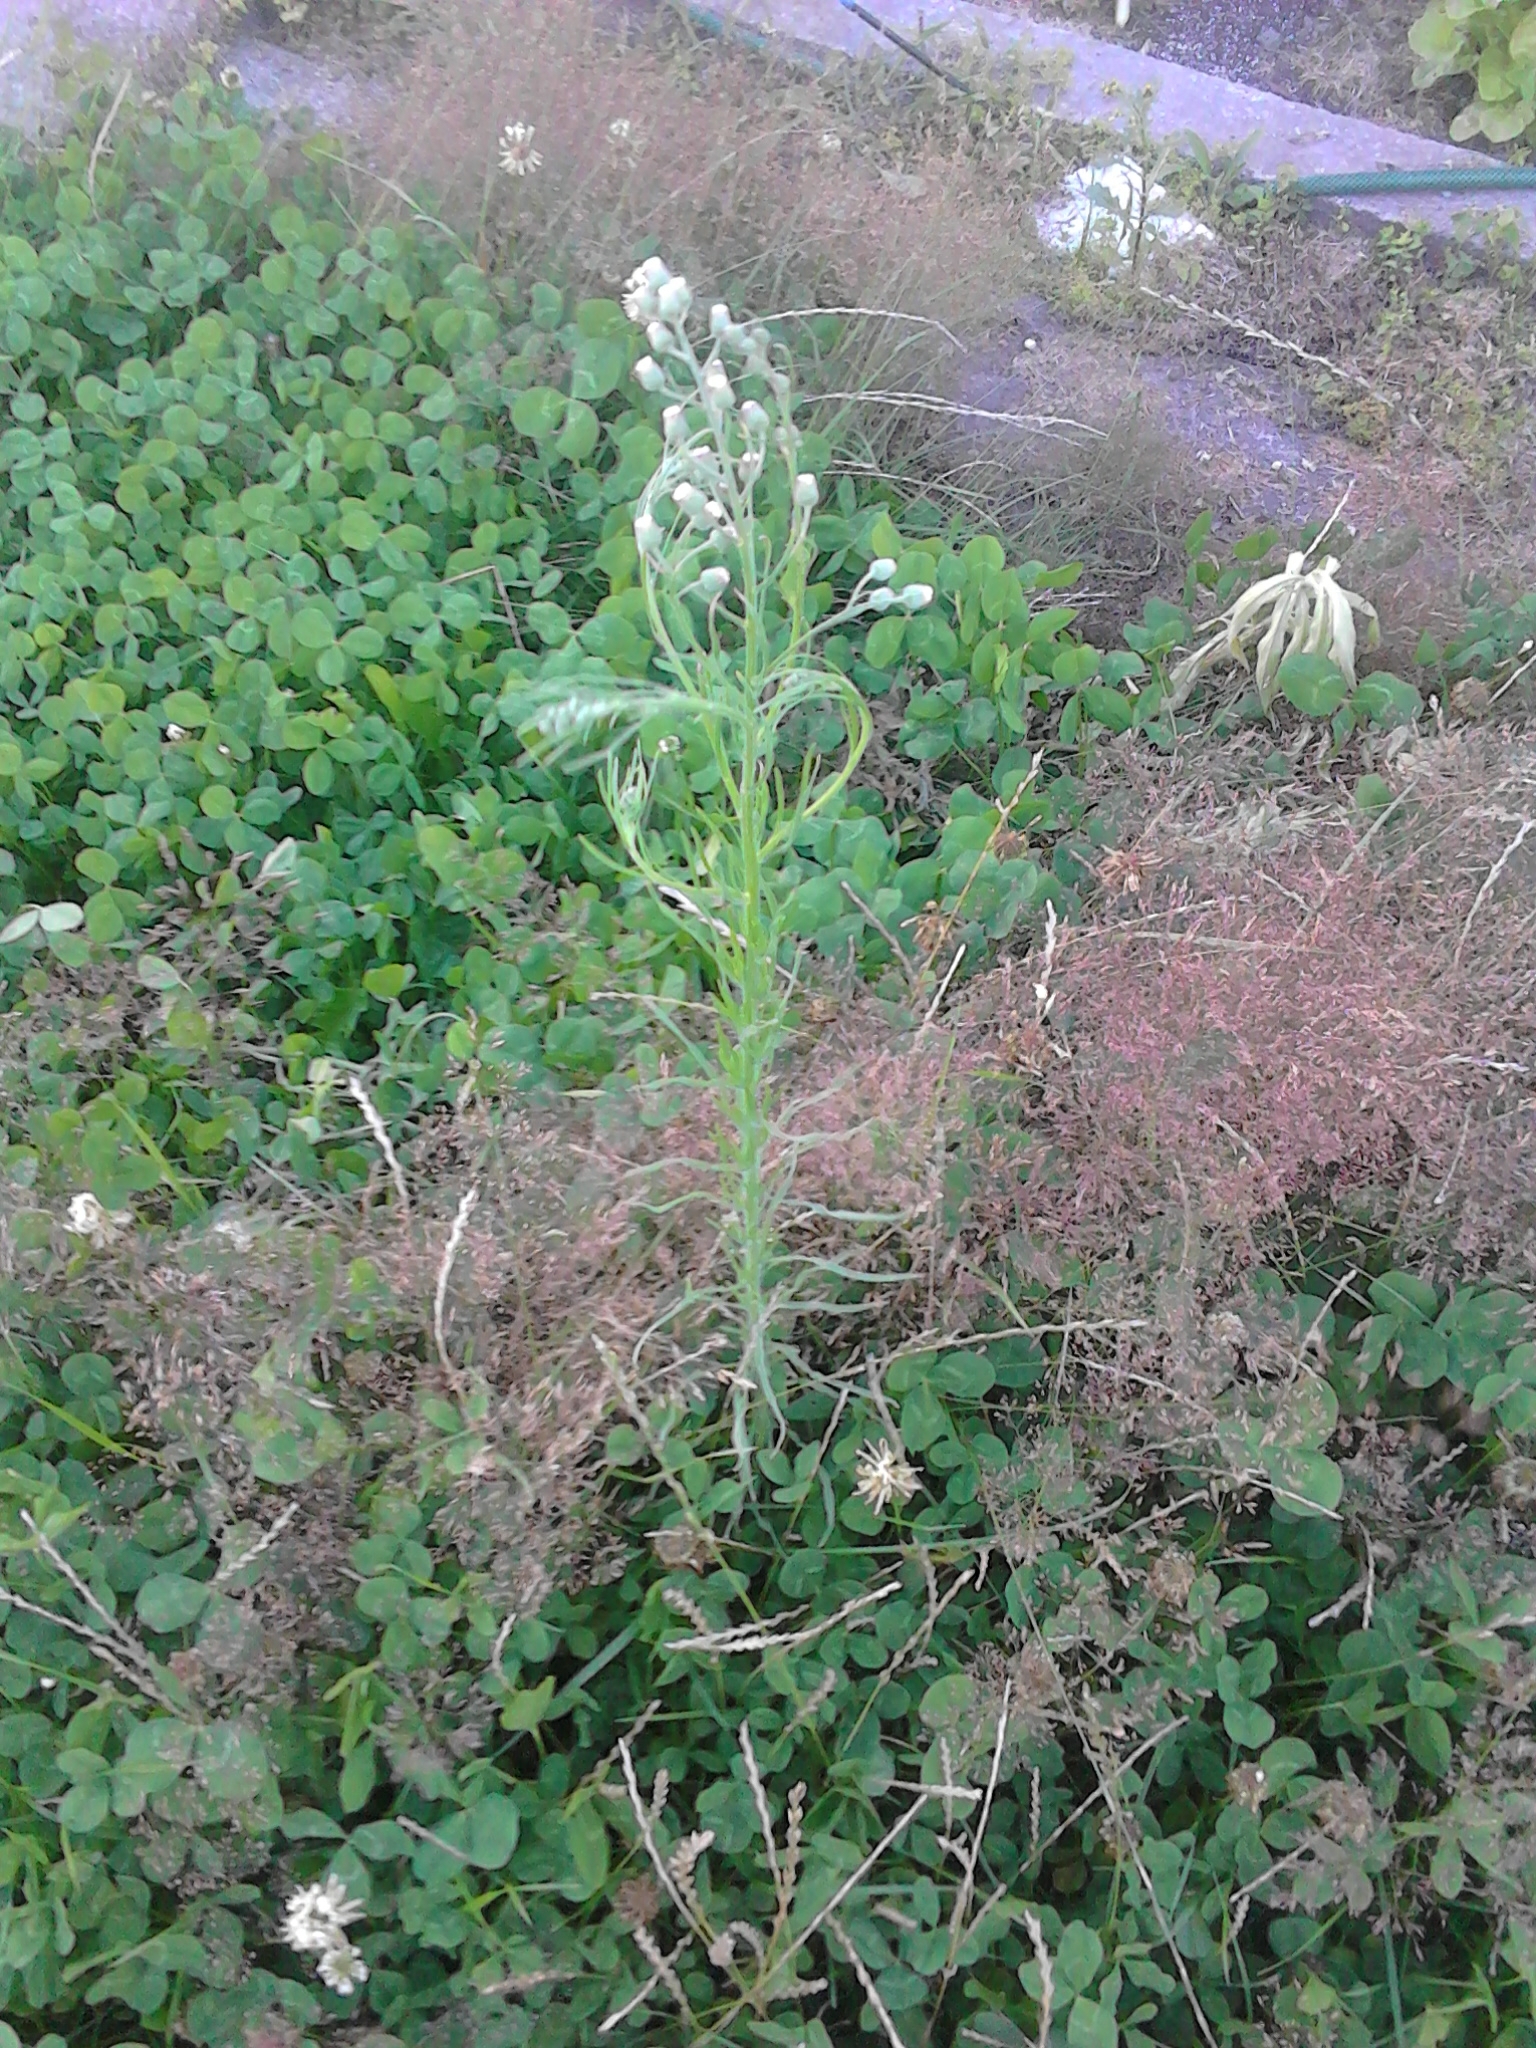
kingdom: Plantae
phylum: Tracheophyta
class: Magnoliopsida
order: Asterales
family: Asteraceae
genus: Erigeron
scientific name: Erigeron bonariensis
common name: Argentine fleabane
